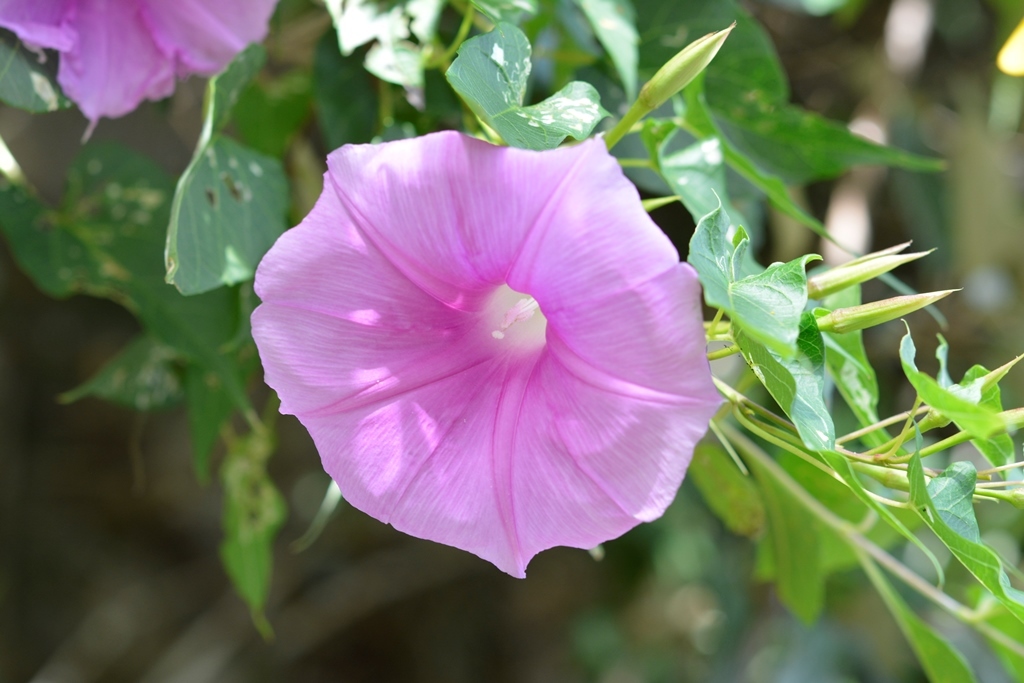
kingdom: Plantae
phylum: Tracheophyta
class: Magnoliopsida
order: Solanales
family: Convolvulaceae
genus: Ipomoea
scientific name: Ipomoea bernoulliana
